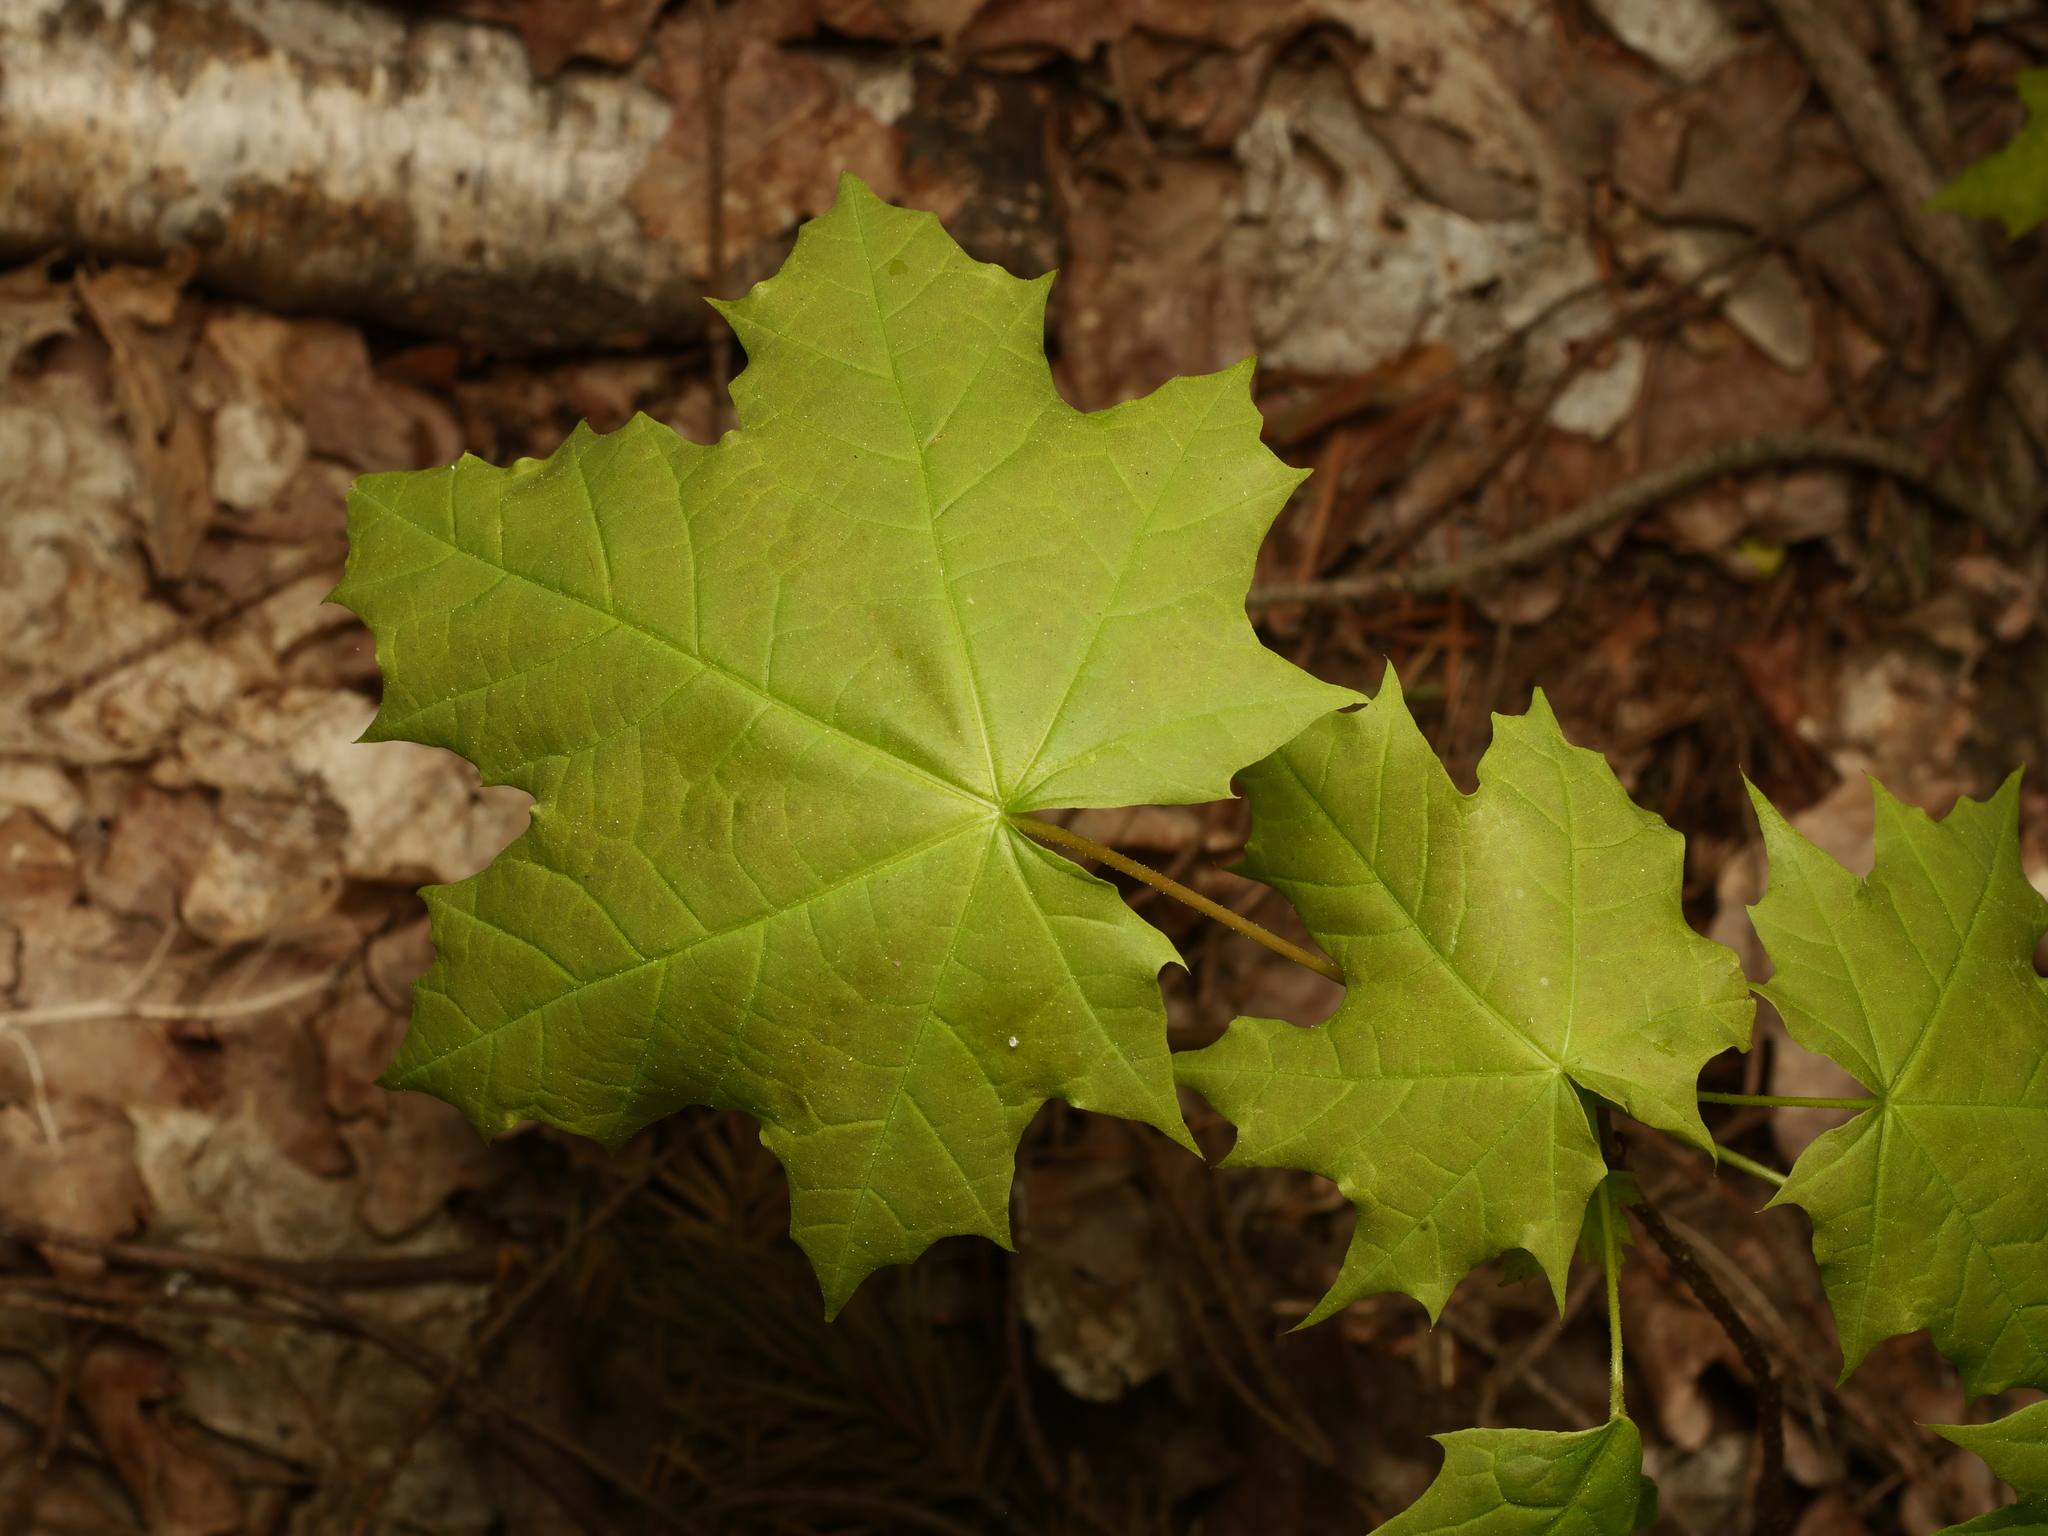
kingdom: Plantae
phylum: Tracheophyta
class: Magnoliopsida
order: Sapindales
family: Sapindaceae
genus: Acer
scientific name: Acer platanoides
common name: Norway maple
